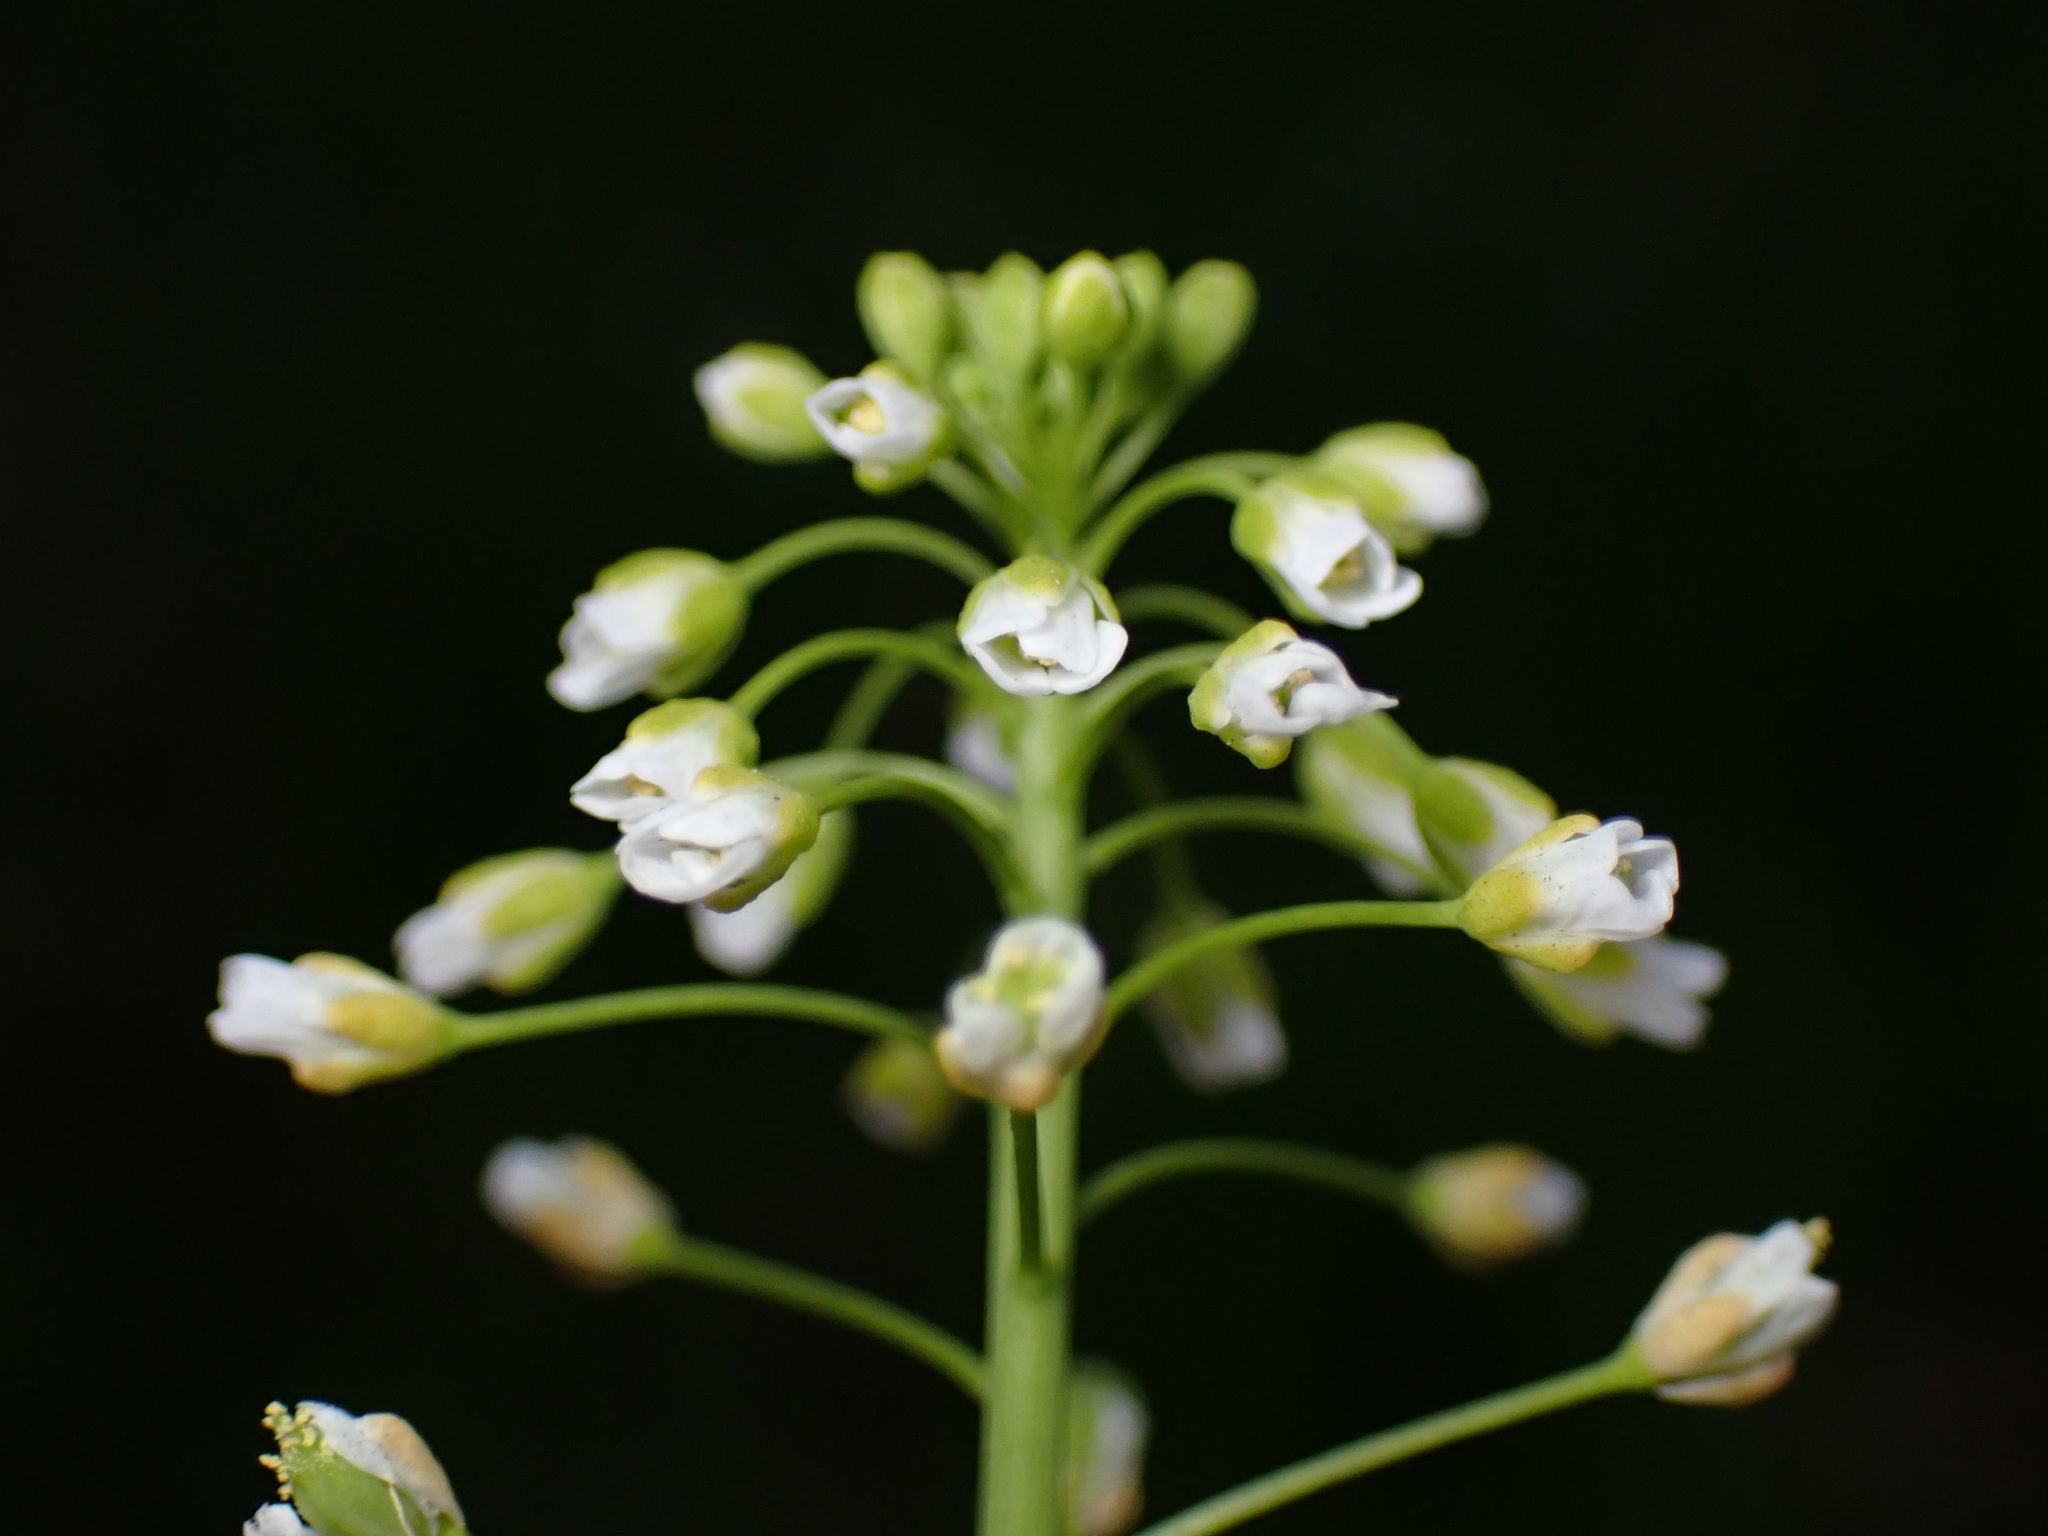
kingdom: Plantae
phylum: Tracheophyta
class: Magnoliopsida
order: Brassicales
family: Brassicaceae
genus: Mummenhoffia
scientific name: Mummenhoffia alliacea
